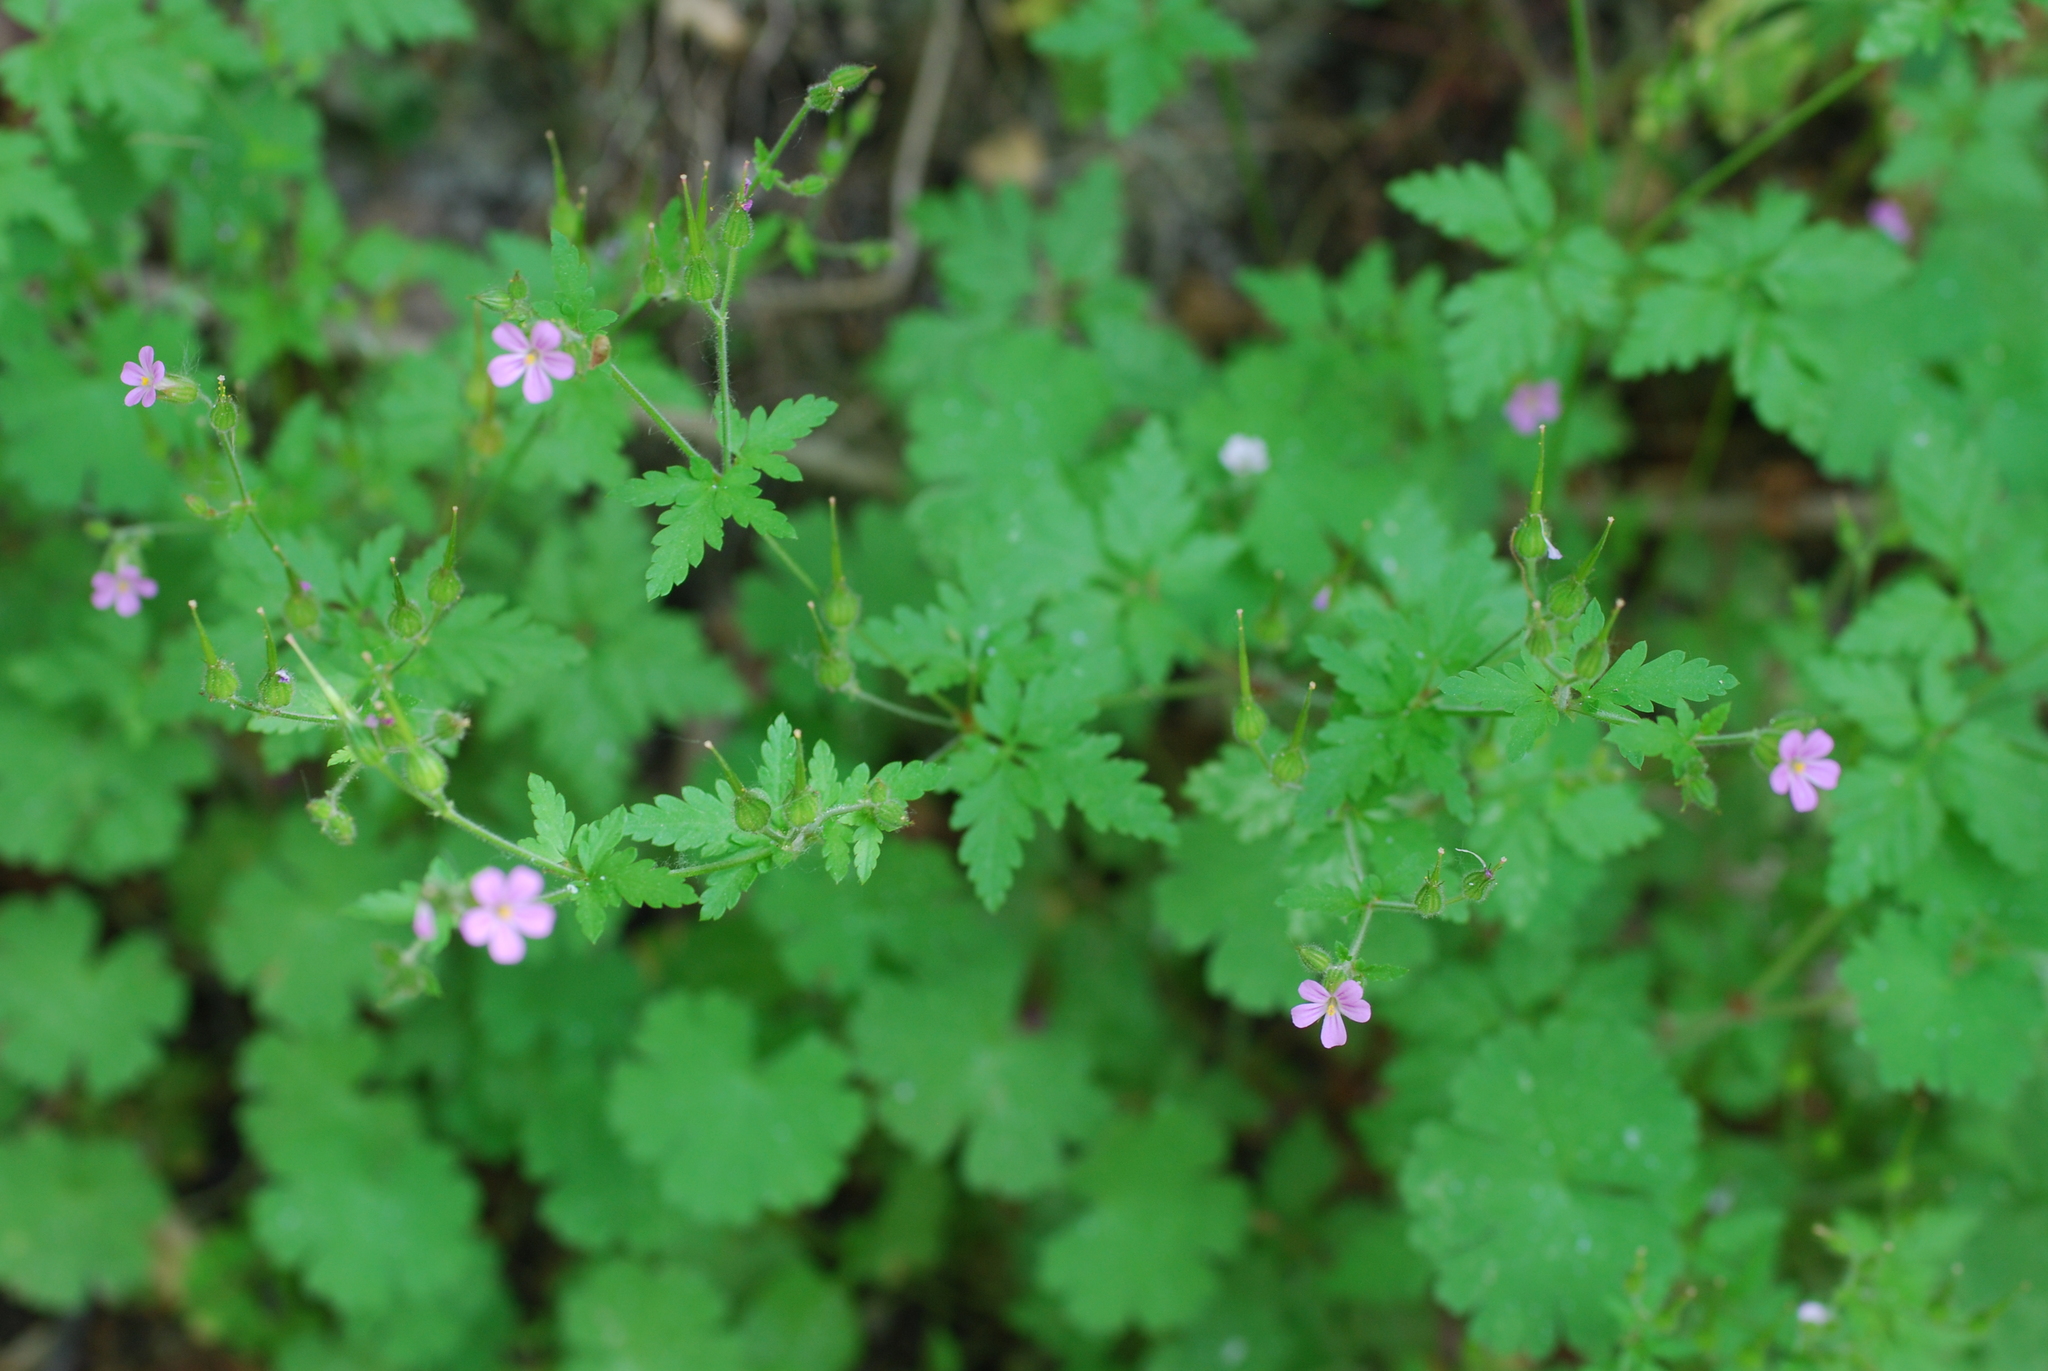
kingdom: Plantae
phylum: Tracheophyta
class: Magnoliopsida
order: Geraniales
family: Geraniaceae
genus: Geranium
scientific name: Geranium robertianum
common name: Herb-robert
